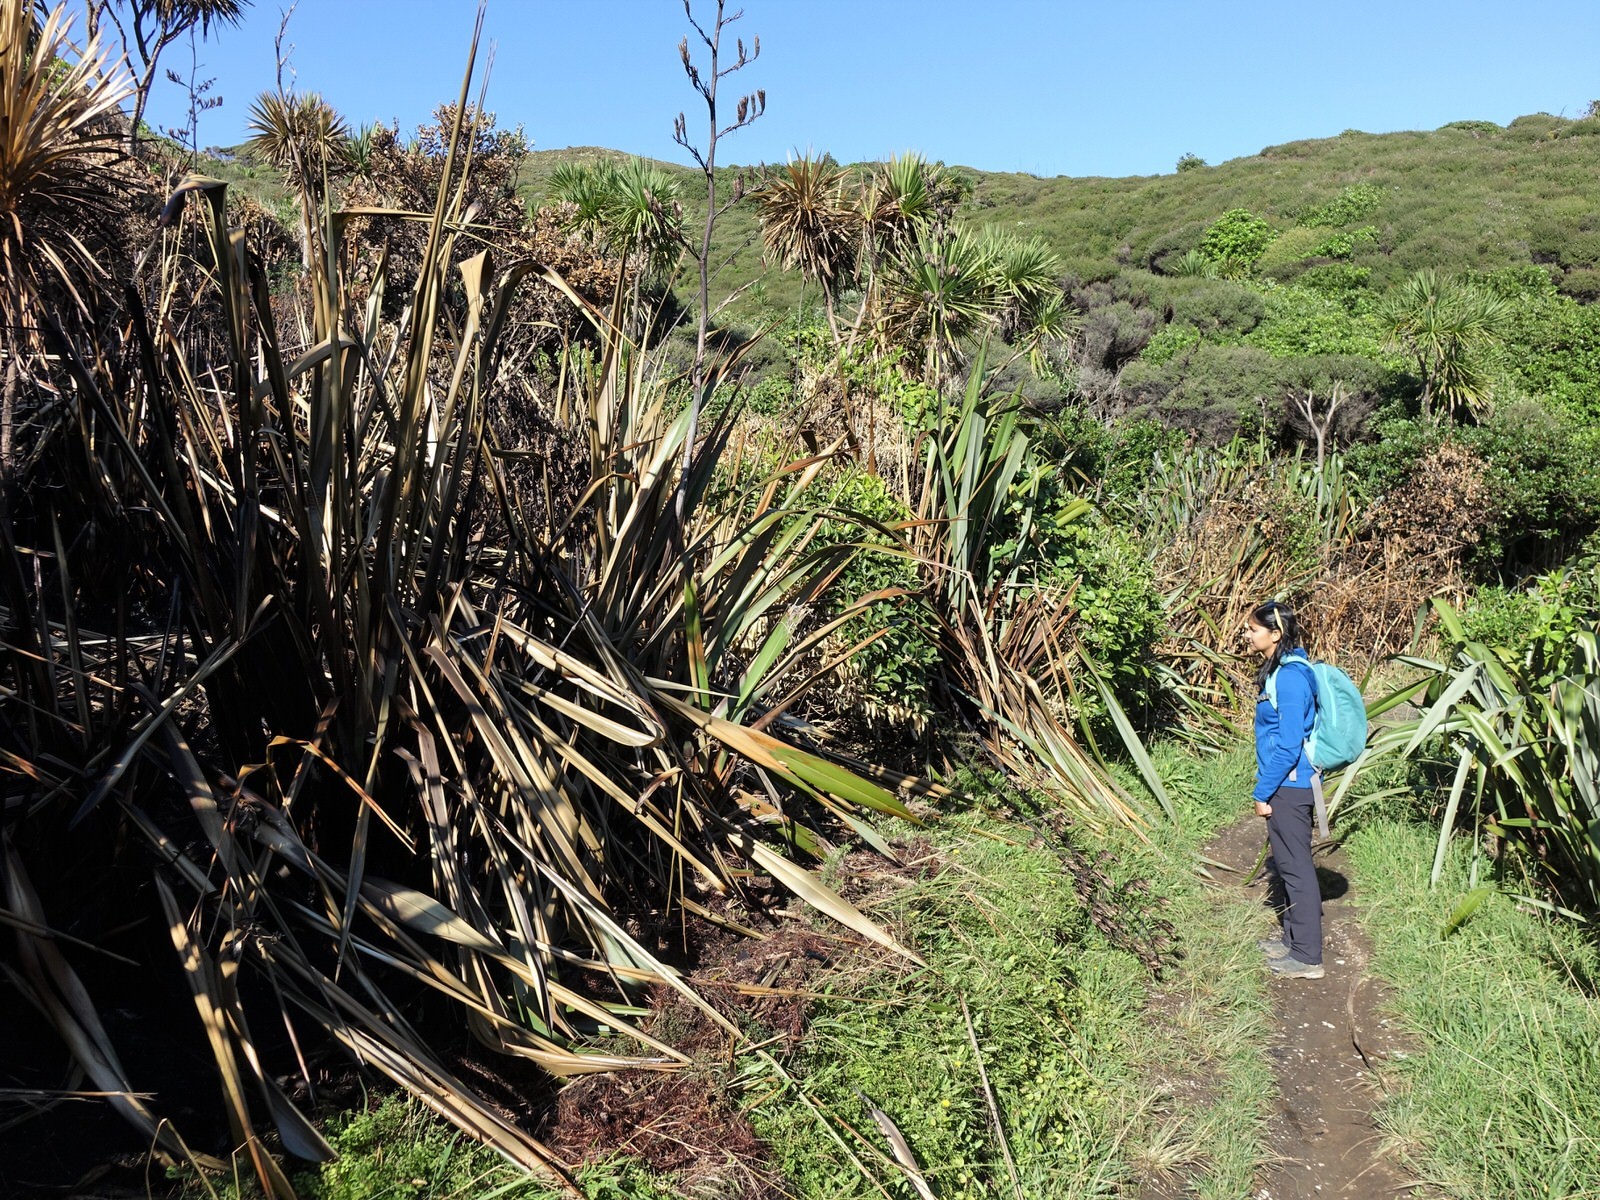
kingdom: Plantae
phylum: Tracheophyta
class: Liliopsida
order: Asparagales
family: Asphodelaceae
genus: Phormium
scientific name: Phormium tenax
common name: New zealand flax
